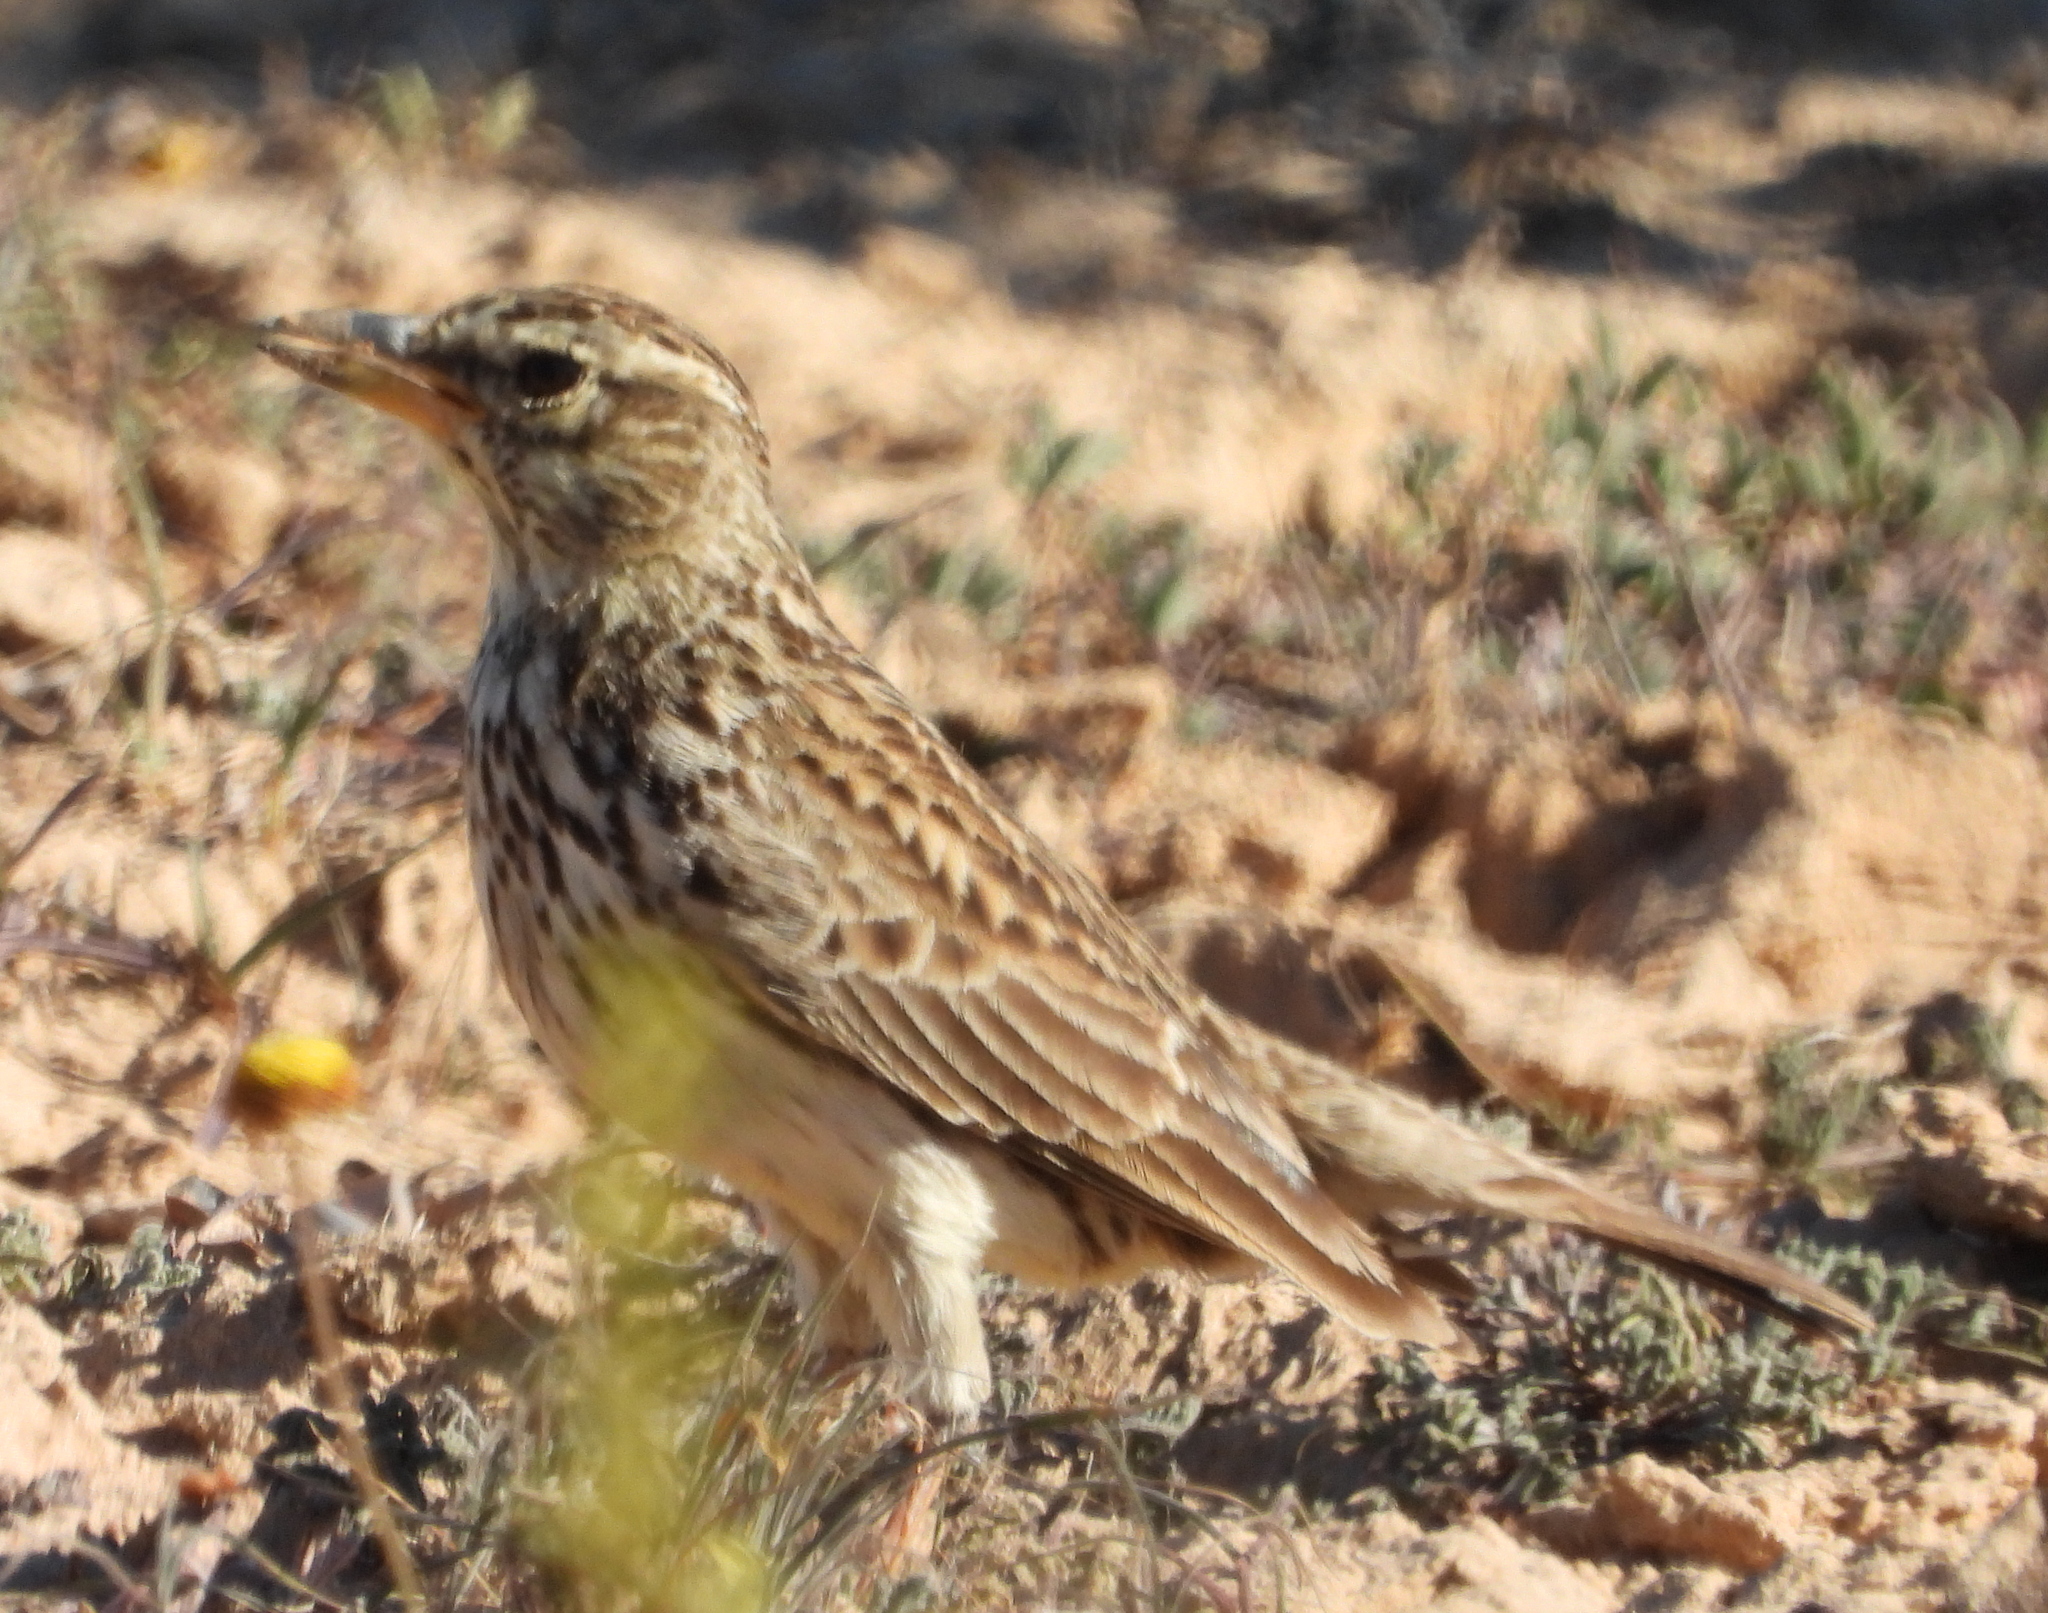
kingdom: Animalia
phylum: Chordata
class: Aves
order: Passeriformes
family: Alaudidae
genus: Galerida
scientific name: Galerida magnirostris
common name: Large-billed lark
